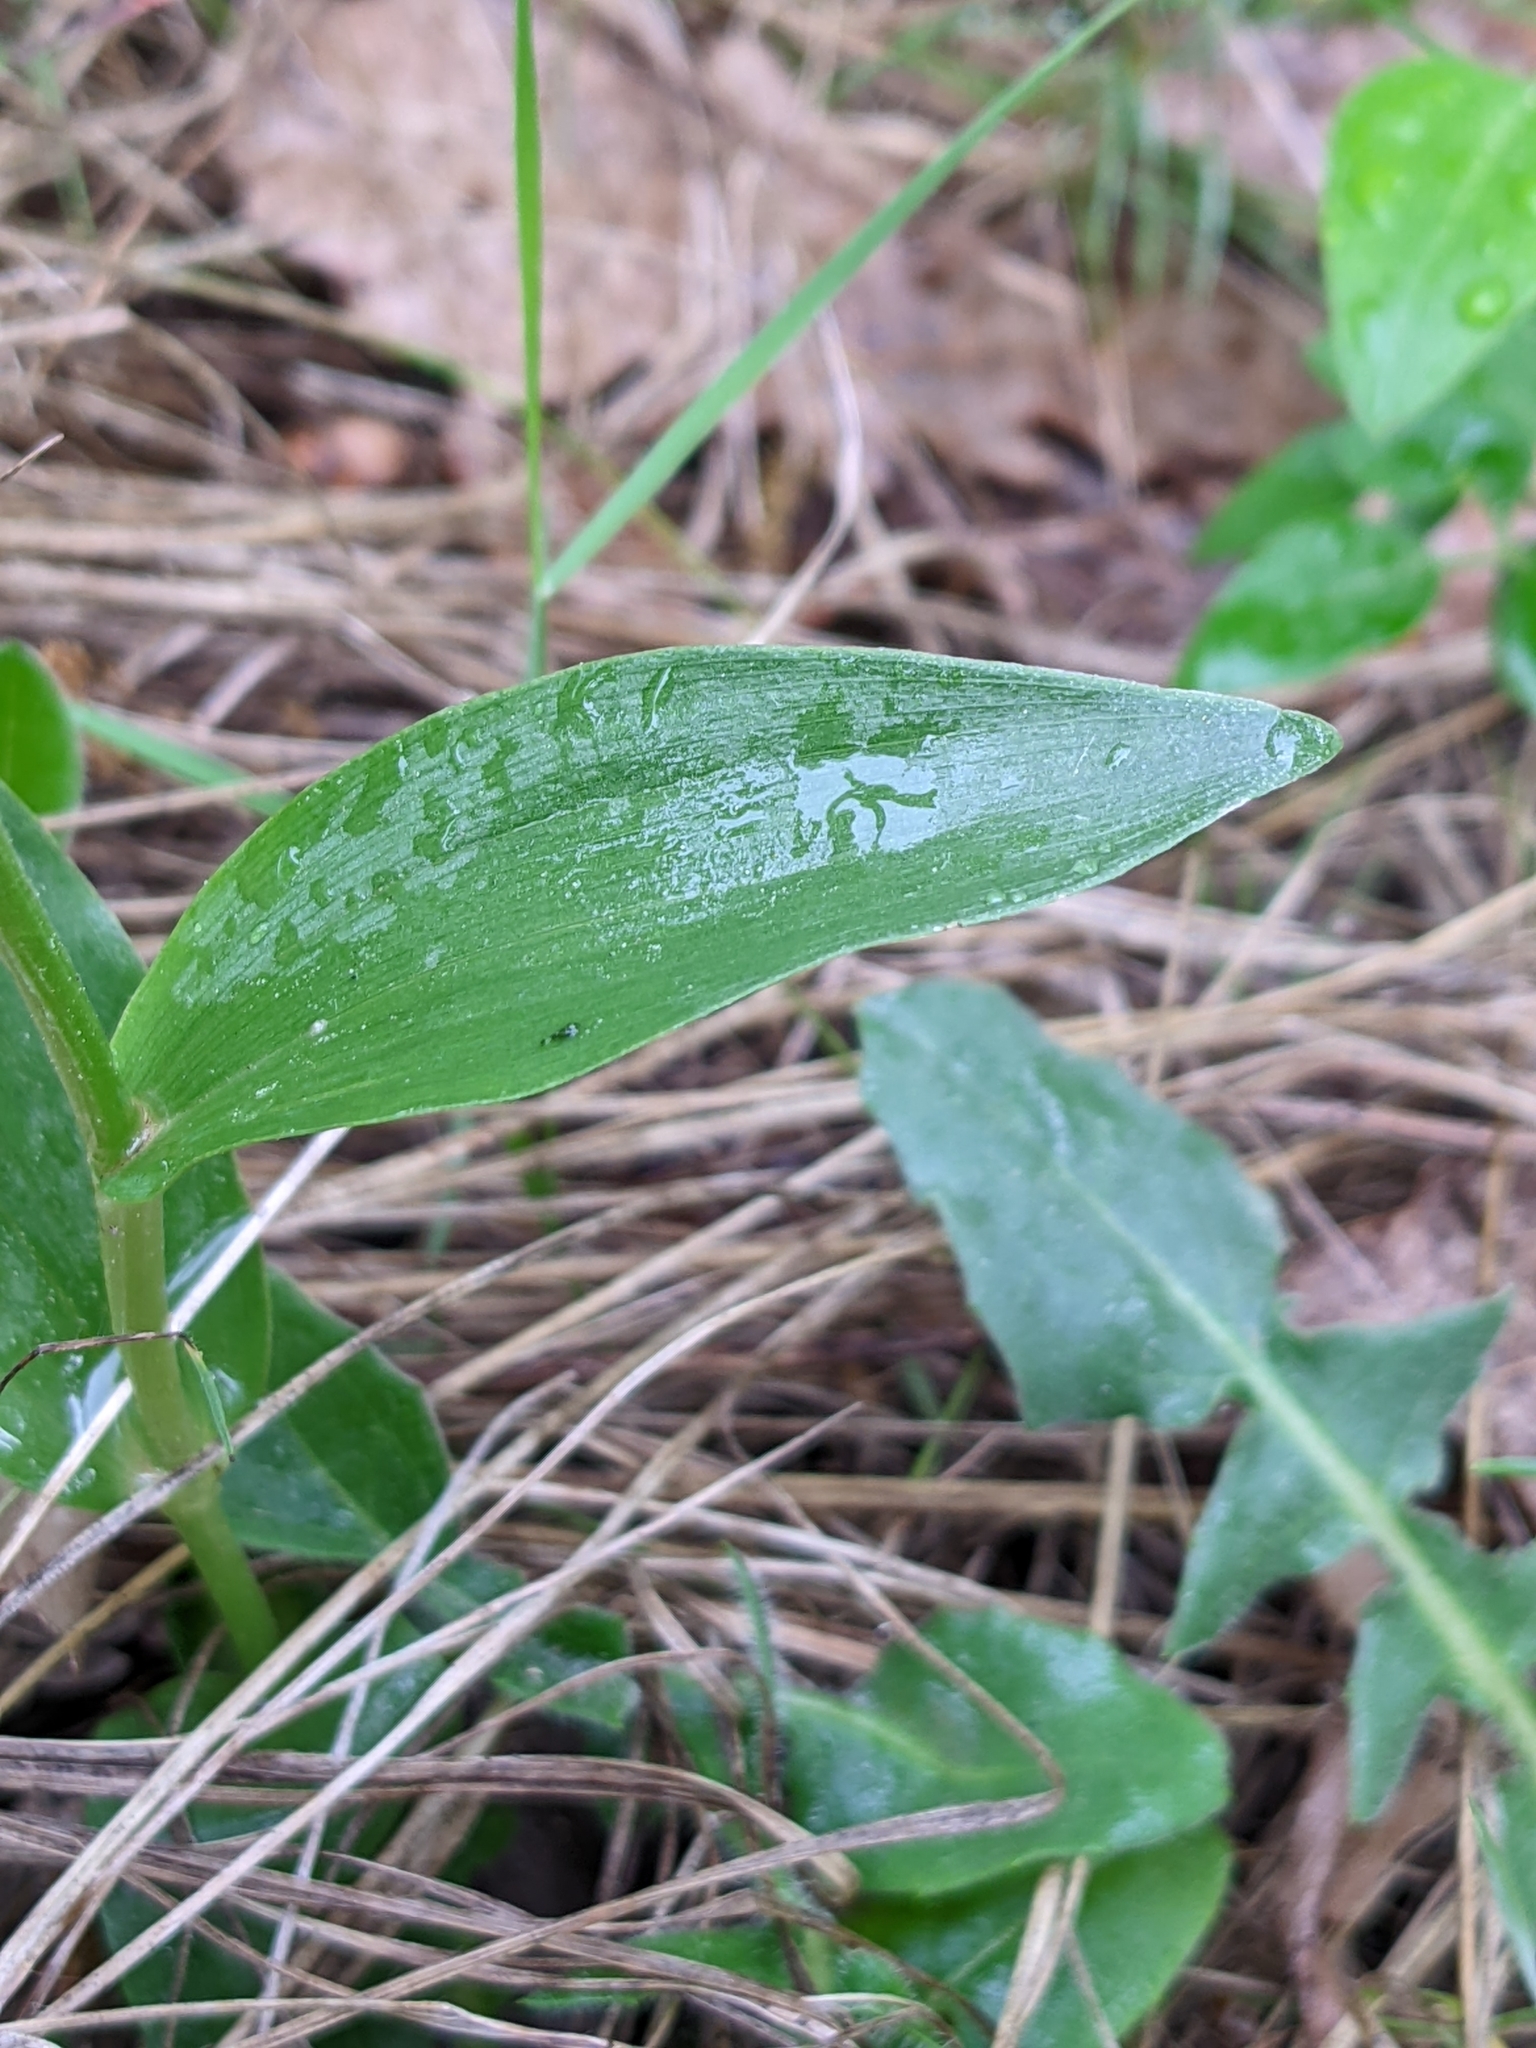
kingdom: Plantae
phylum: Tracheophyta
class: Liliopsida
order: Asparagales
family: Orchidaceae
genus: Cephalanthera
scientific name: Cephalanthera damasonium
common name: White helleborine
